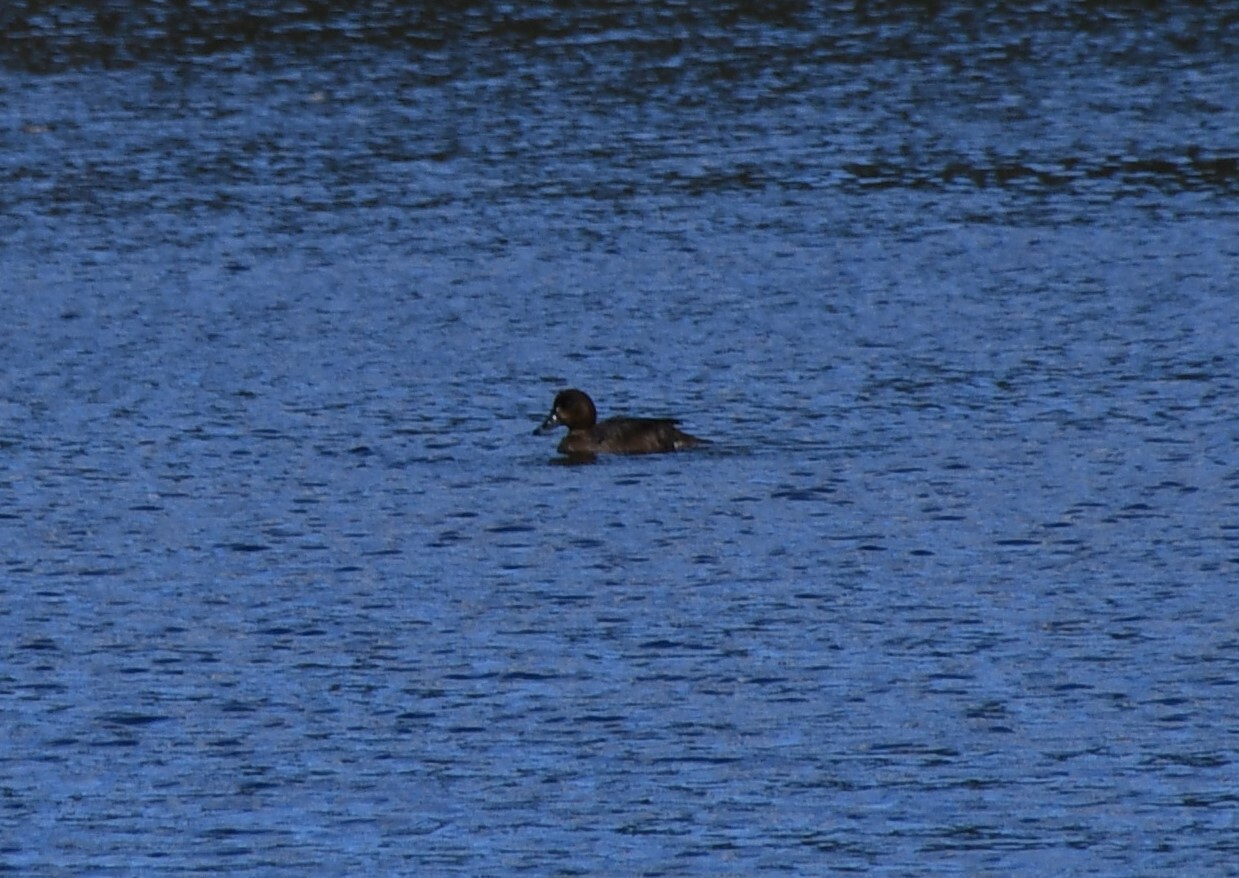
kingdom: Animalia
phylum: Chordata
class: Aves
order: Anseriformes
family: Anatidae
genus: Aythya
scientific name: Aythya australis
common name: Hardhead
